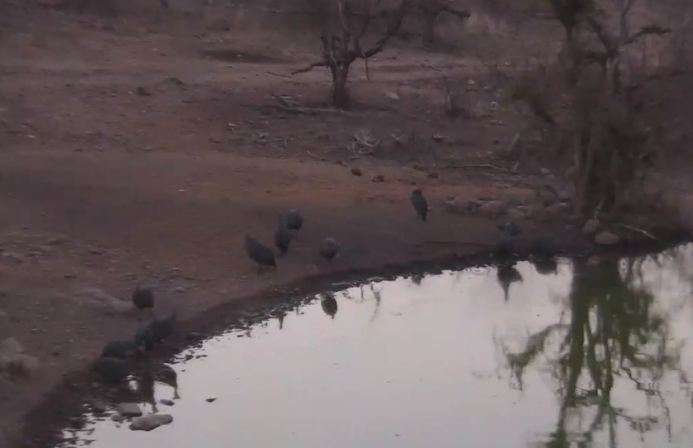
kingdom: Animalia
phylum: Chordata
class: Aves
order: Galliformes
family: Numididae
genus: Numida
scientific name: Numida meleagris
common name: Helmeted guineafowl
